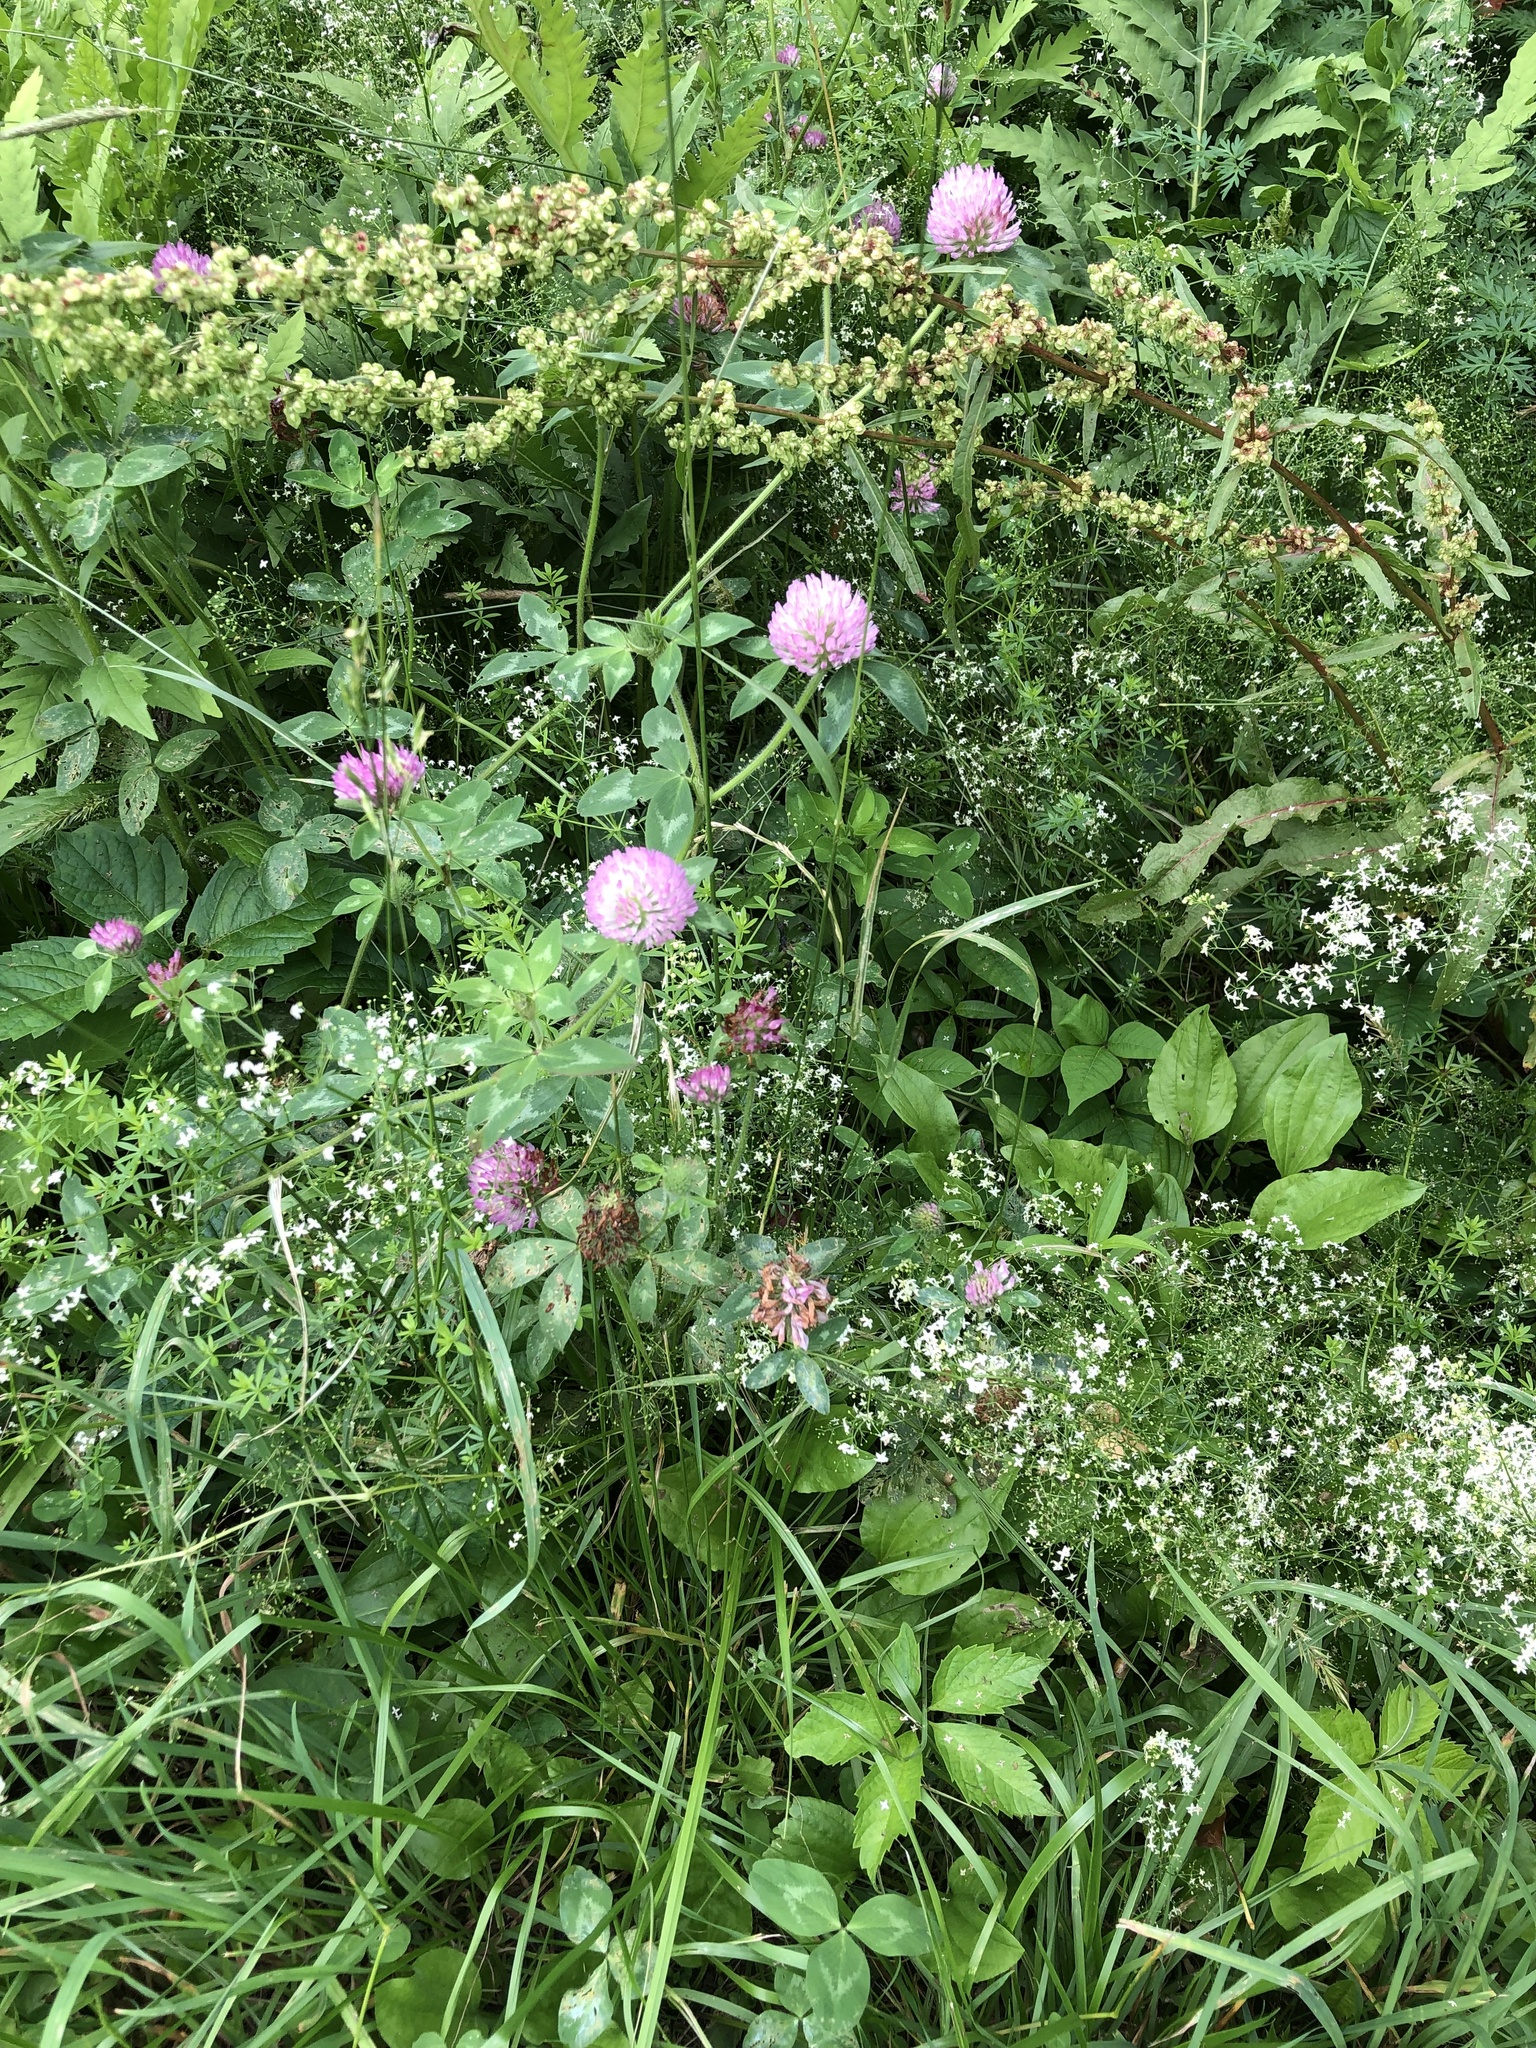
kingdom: Plantae
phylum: Tracheophyta
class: Magnoliopsida
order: Fabales
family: Fabaceae
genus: Trifolium
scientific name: Trifolium pratense
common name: Red clover
